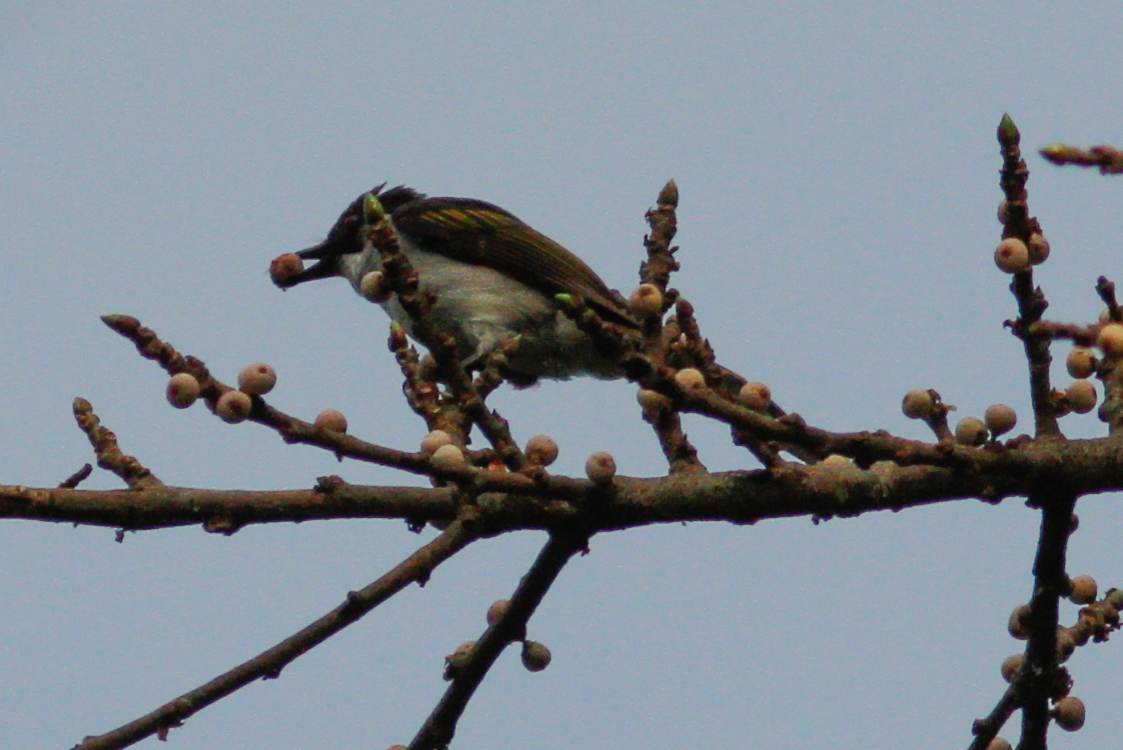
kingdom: Animalia
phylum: Chordata
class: Aves
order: Passeriformes
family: Pycnonotidae
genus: Hemixos
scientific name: Hemixos flavala
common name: Ashy bulbul
